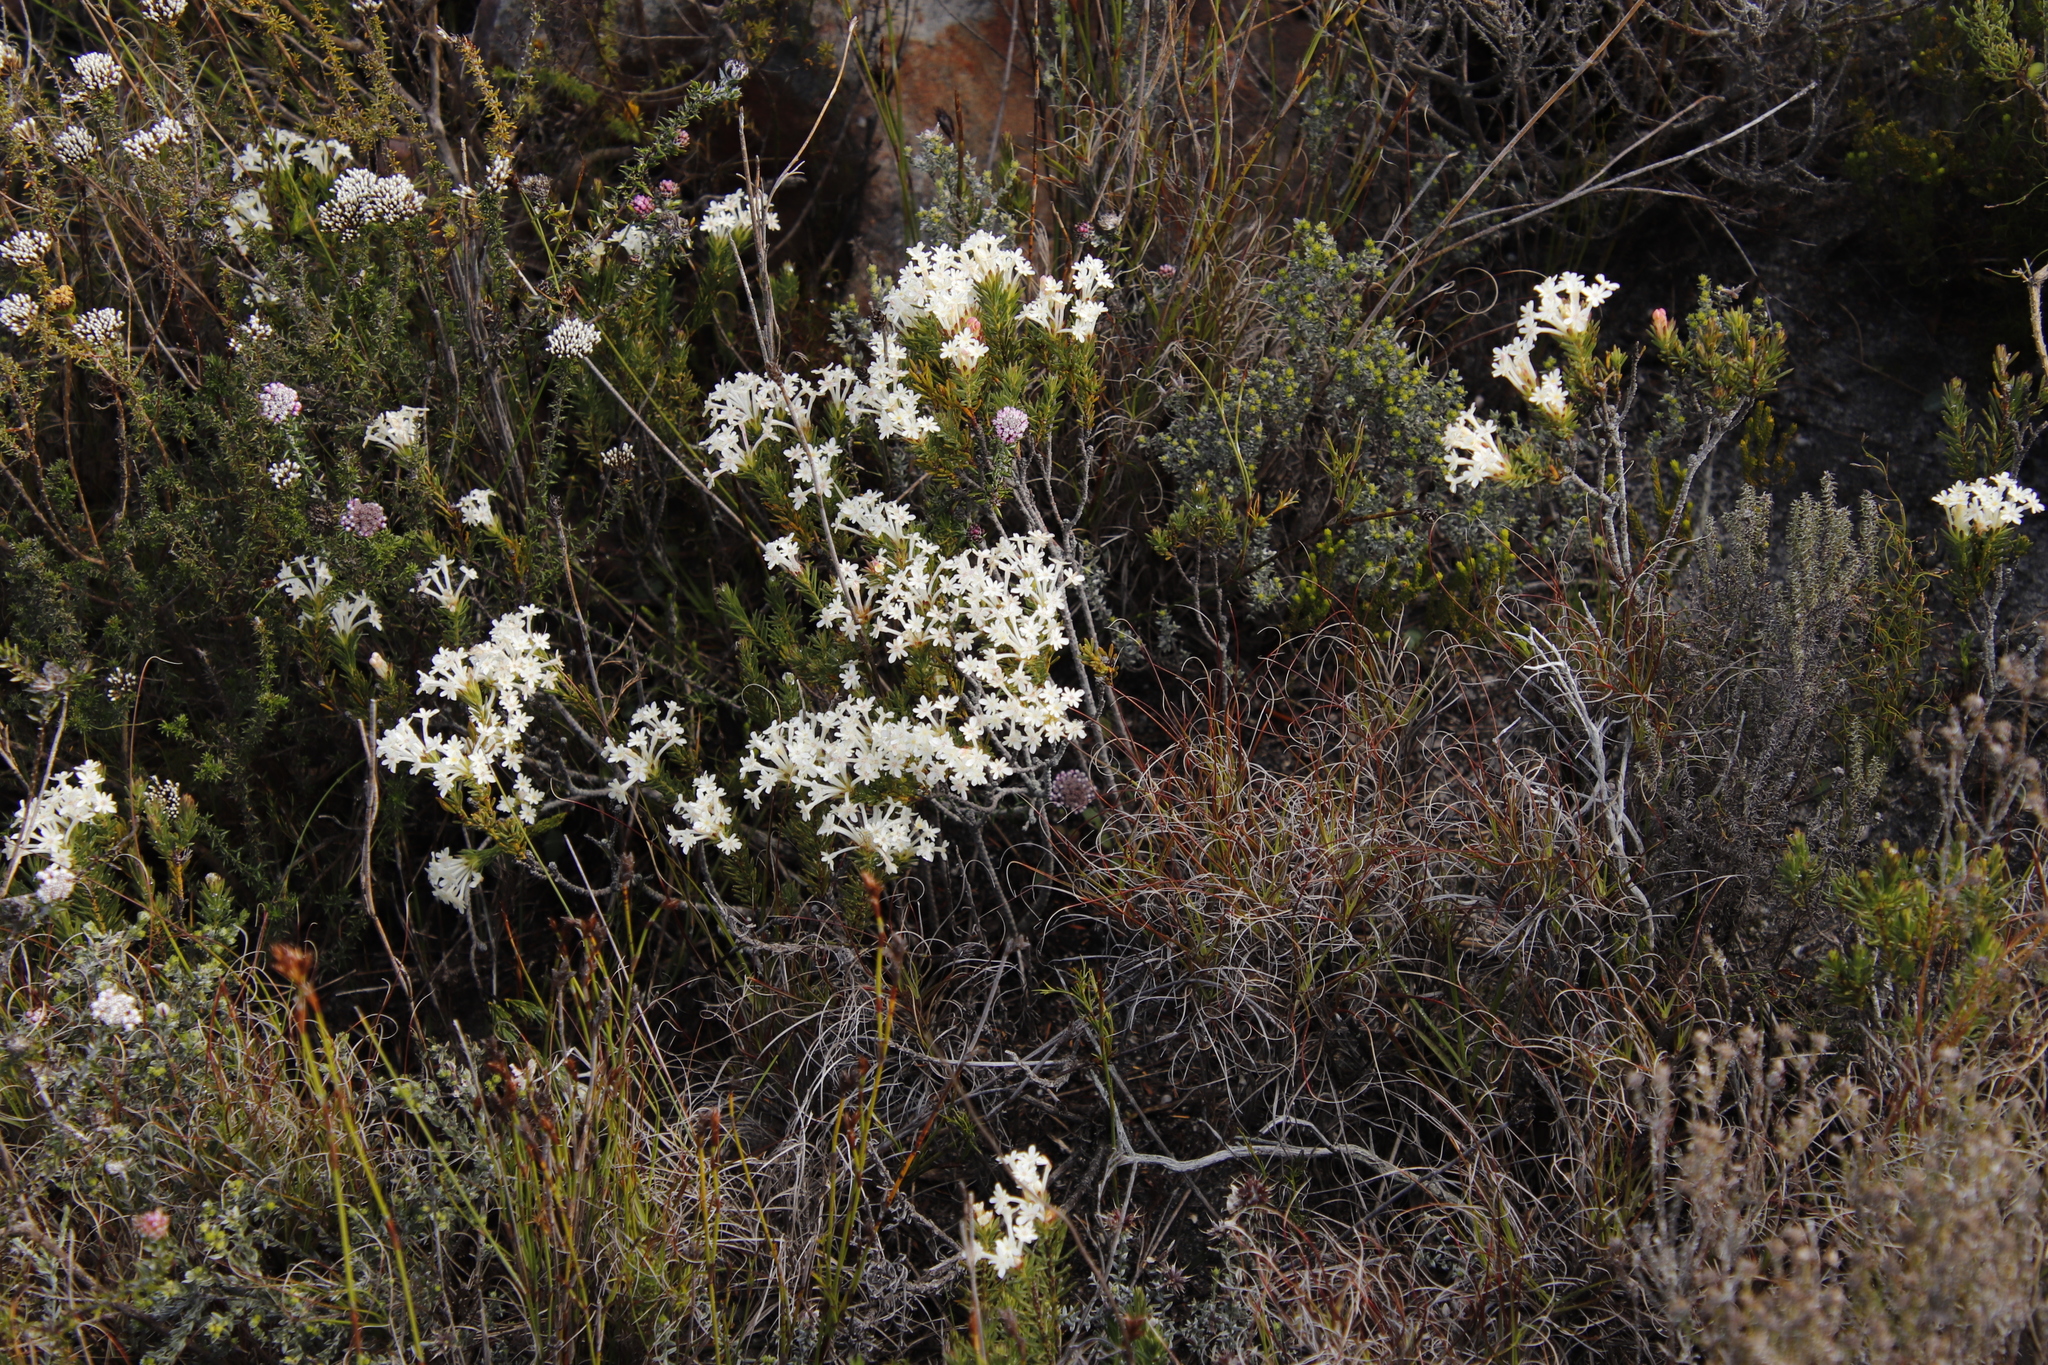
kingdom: Plantae
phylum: Tracheophyta
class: Magnoliopsida
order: Malvales
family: Thymelaeaceae
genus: Gnidia
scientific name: Gnidia pinifolia
